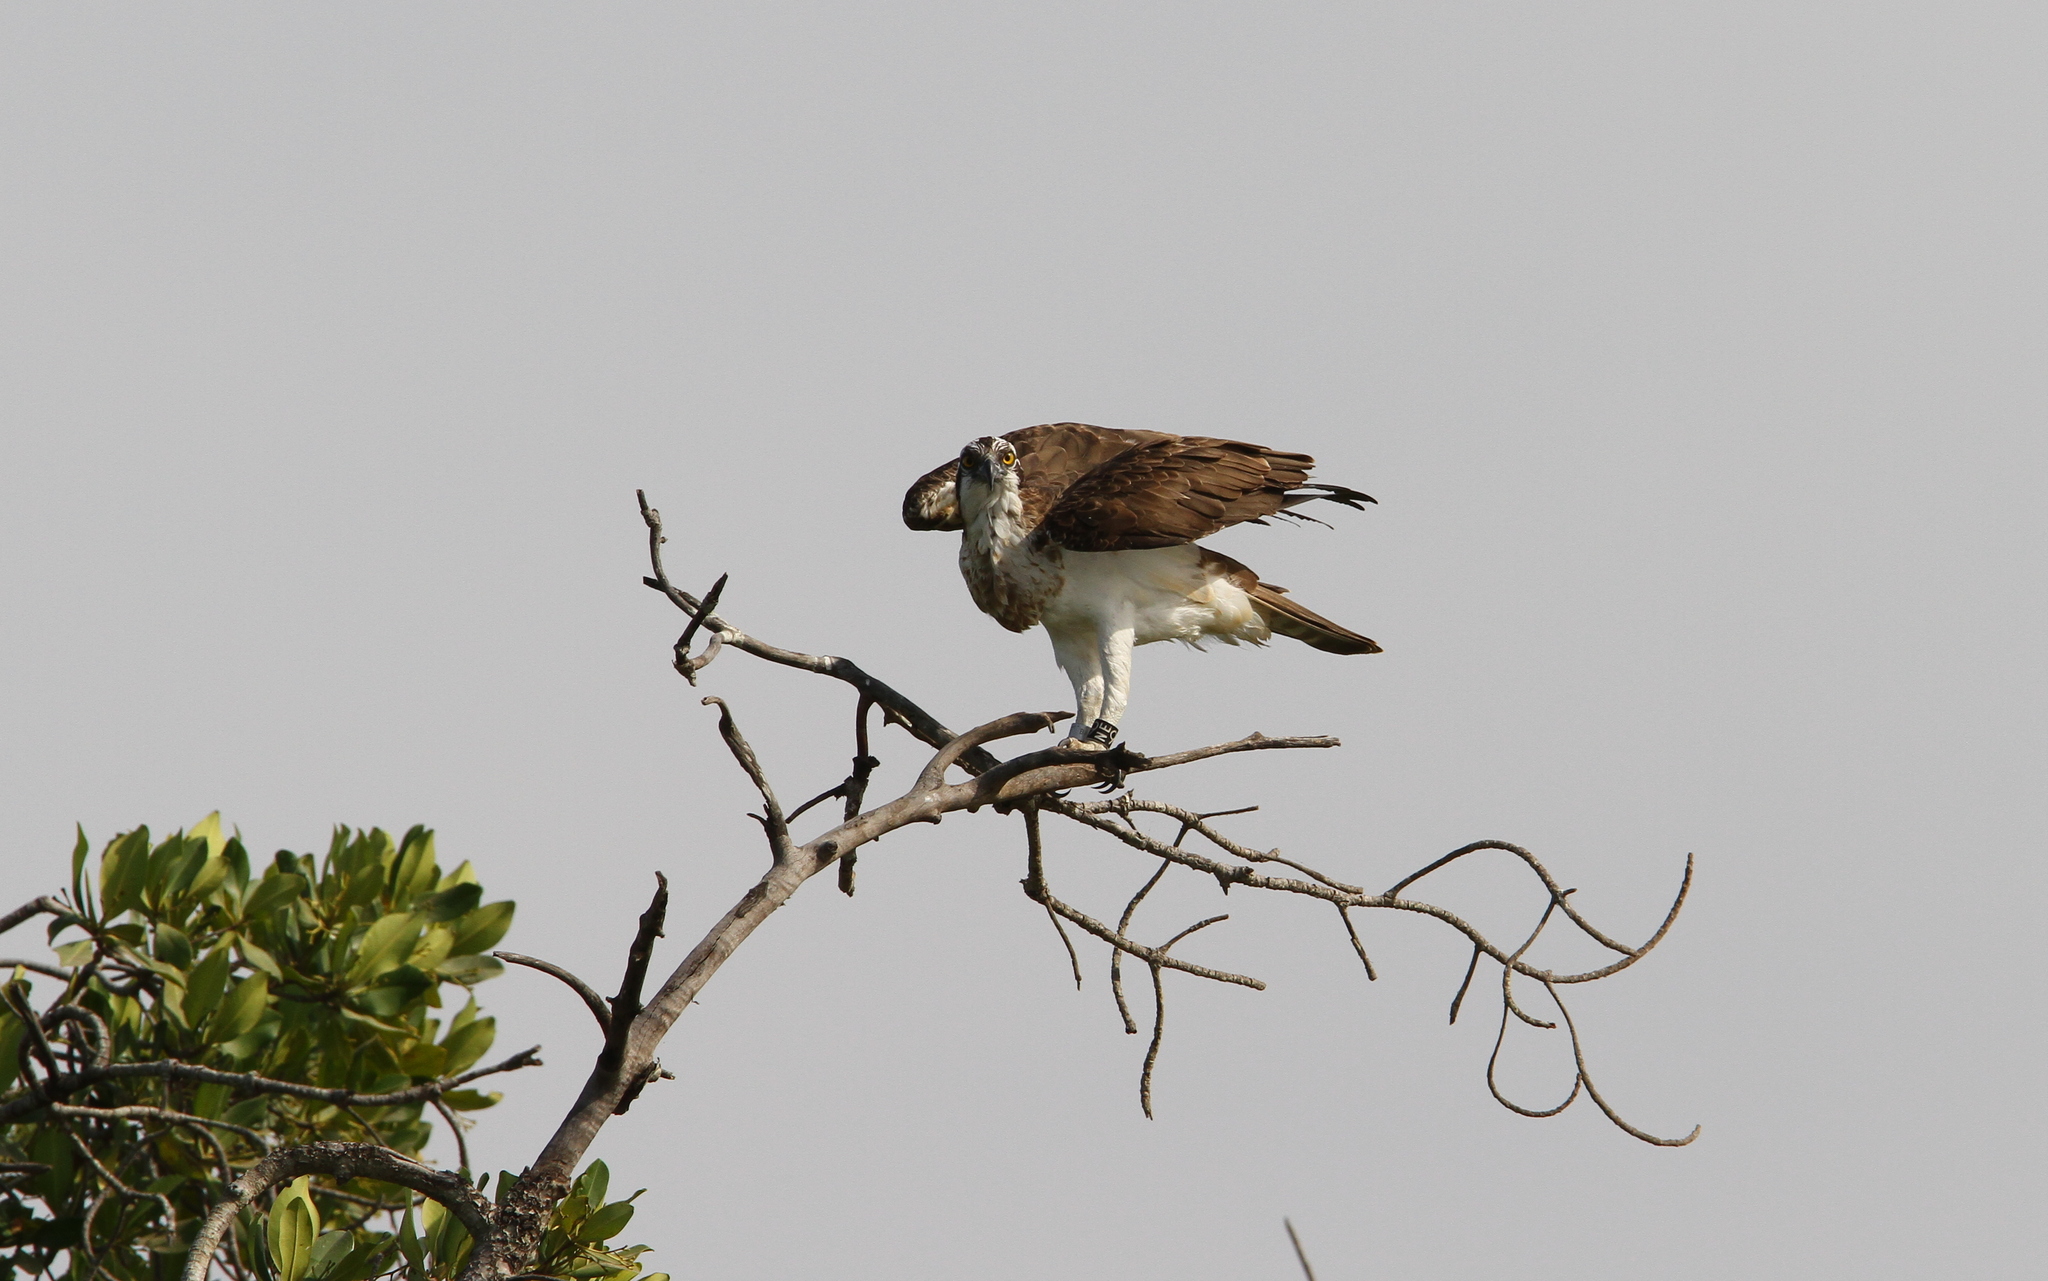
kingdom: Animalia
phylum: Chordata
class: Aves
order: Accipitriformes
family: Pandionidae
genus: Pandion
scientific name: Pandion haliaetus
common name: Osprey
